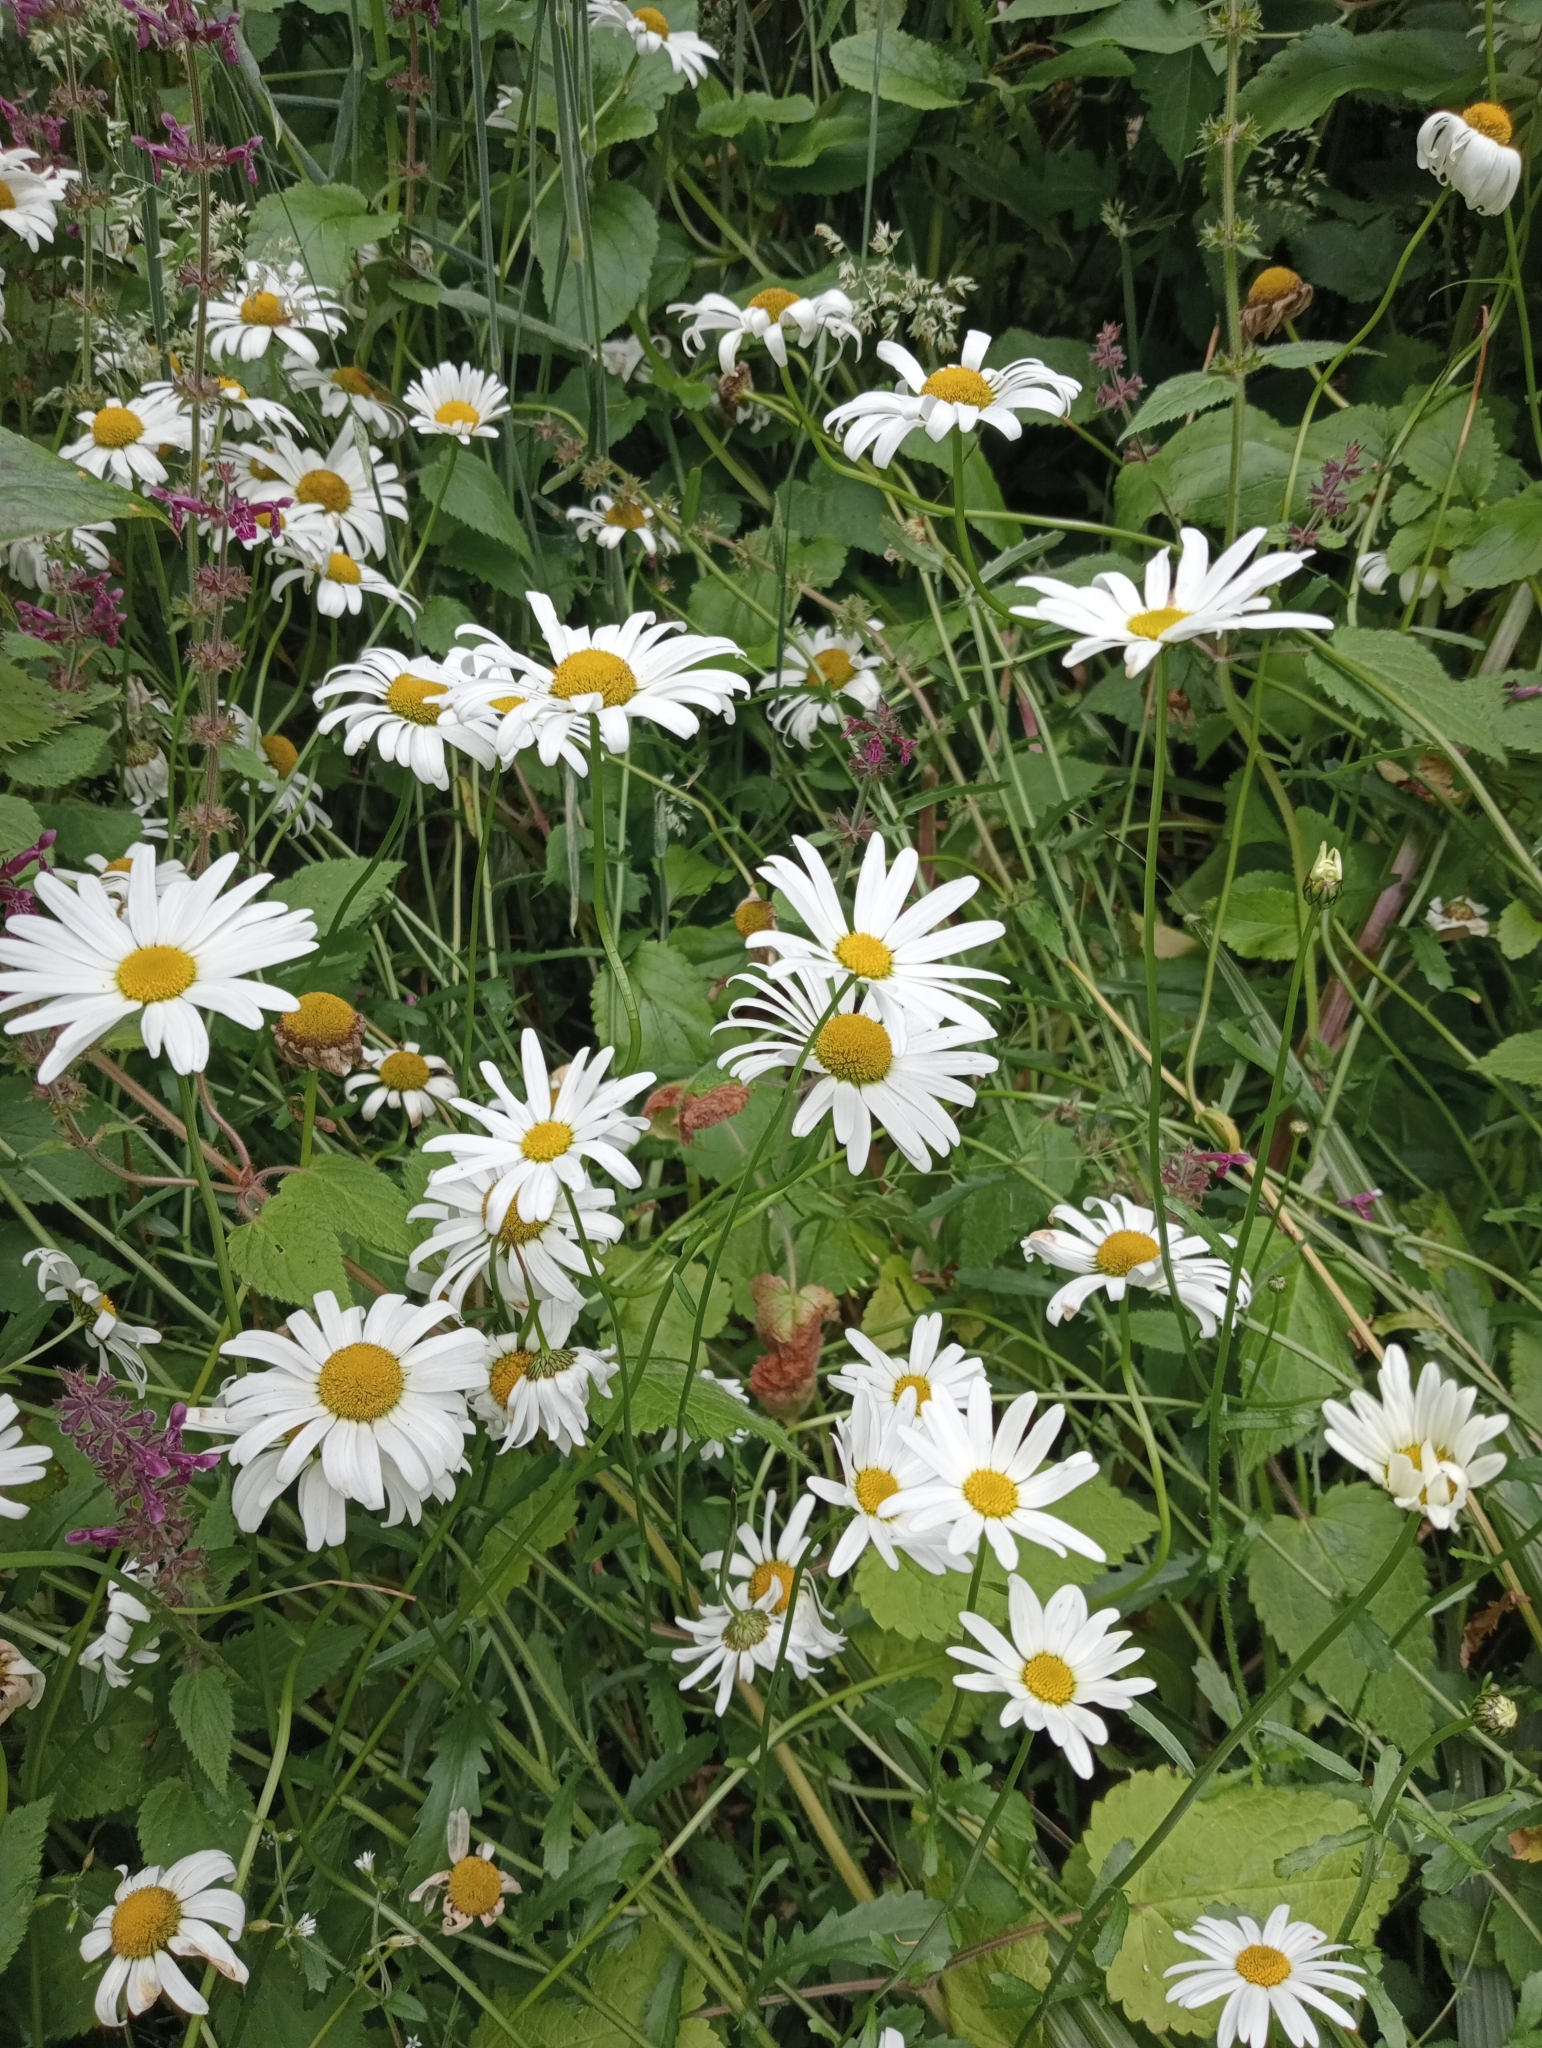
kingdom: Plantae
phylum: Tracheophyta
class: Magnoliopsida
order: Asterales
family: Asteraceae
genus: Leucanthemum
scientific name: Leucanthemum vulgare
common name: Oxeye daisy
